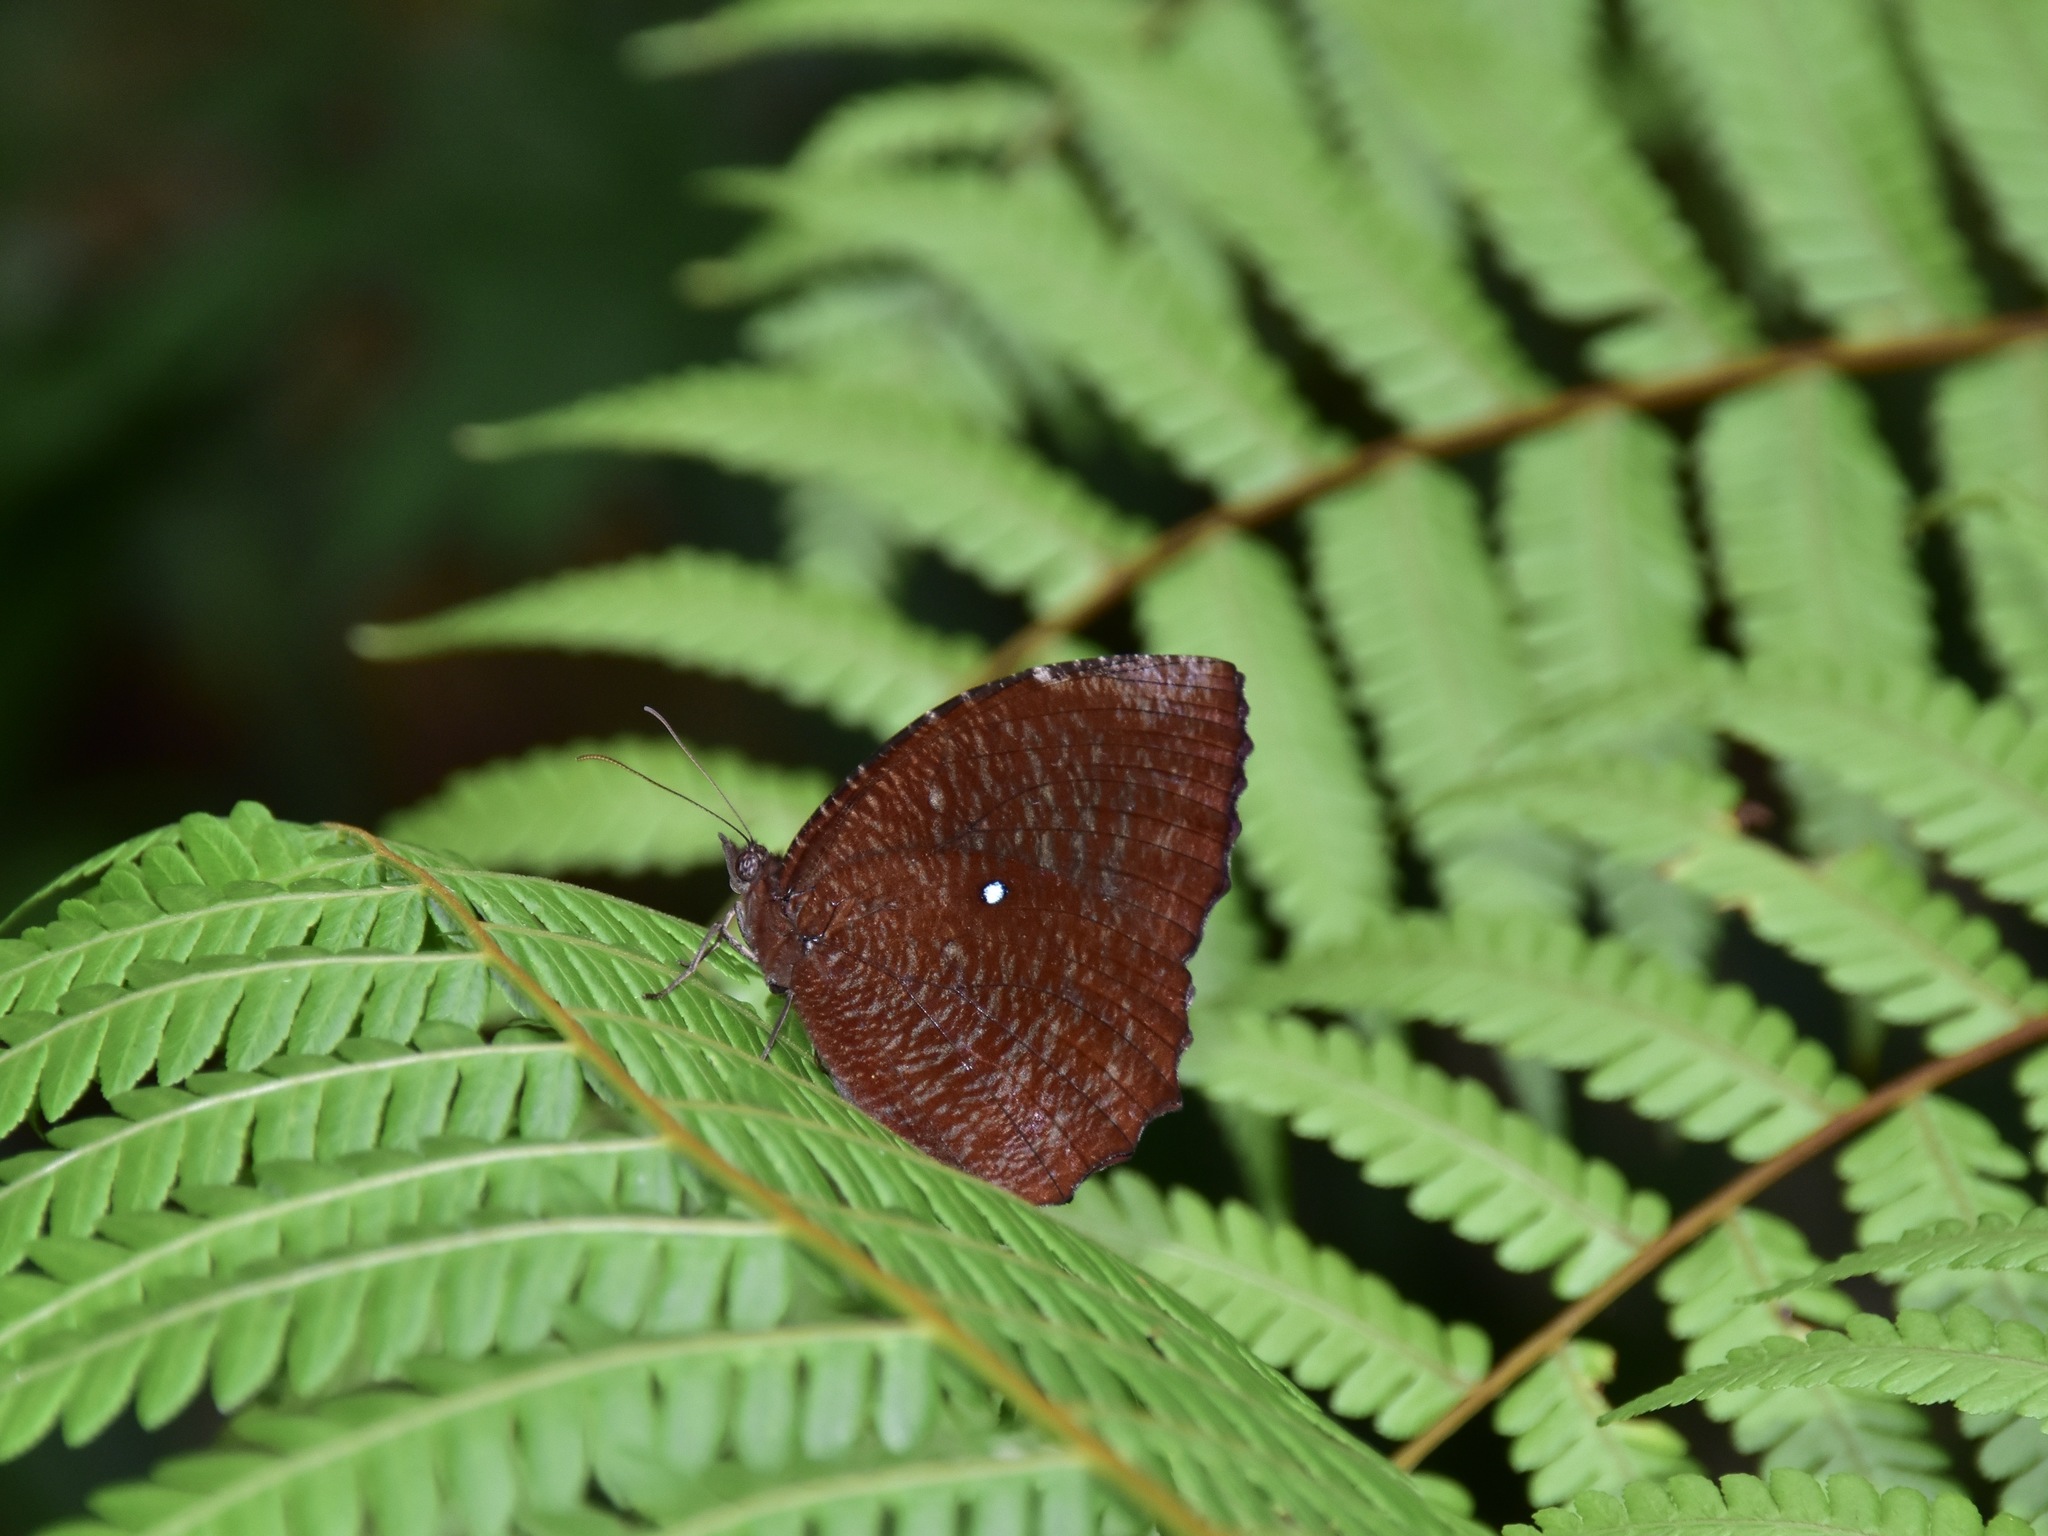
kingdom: Animalia
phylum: Arthropoda
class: Insecta
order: Lepidoptera
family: Nymphalidae
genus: Elymnias
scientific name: Elymnias hypermnestra
